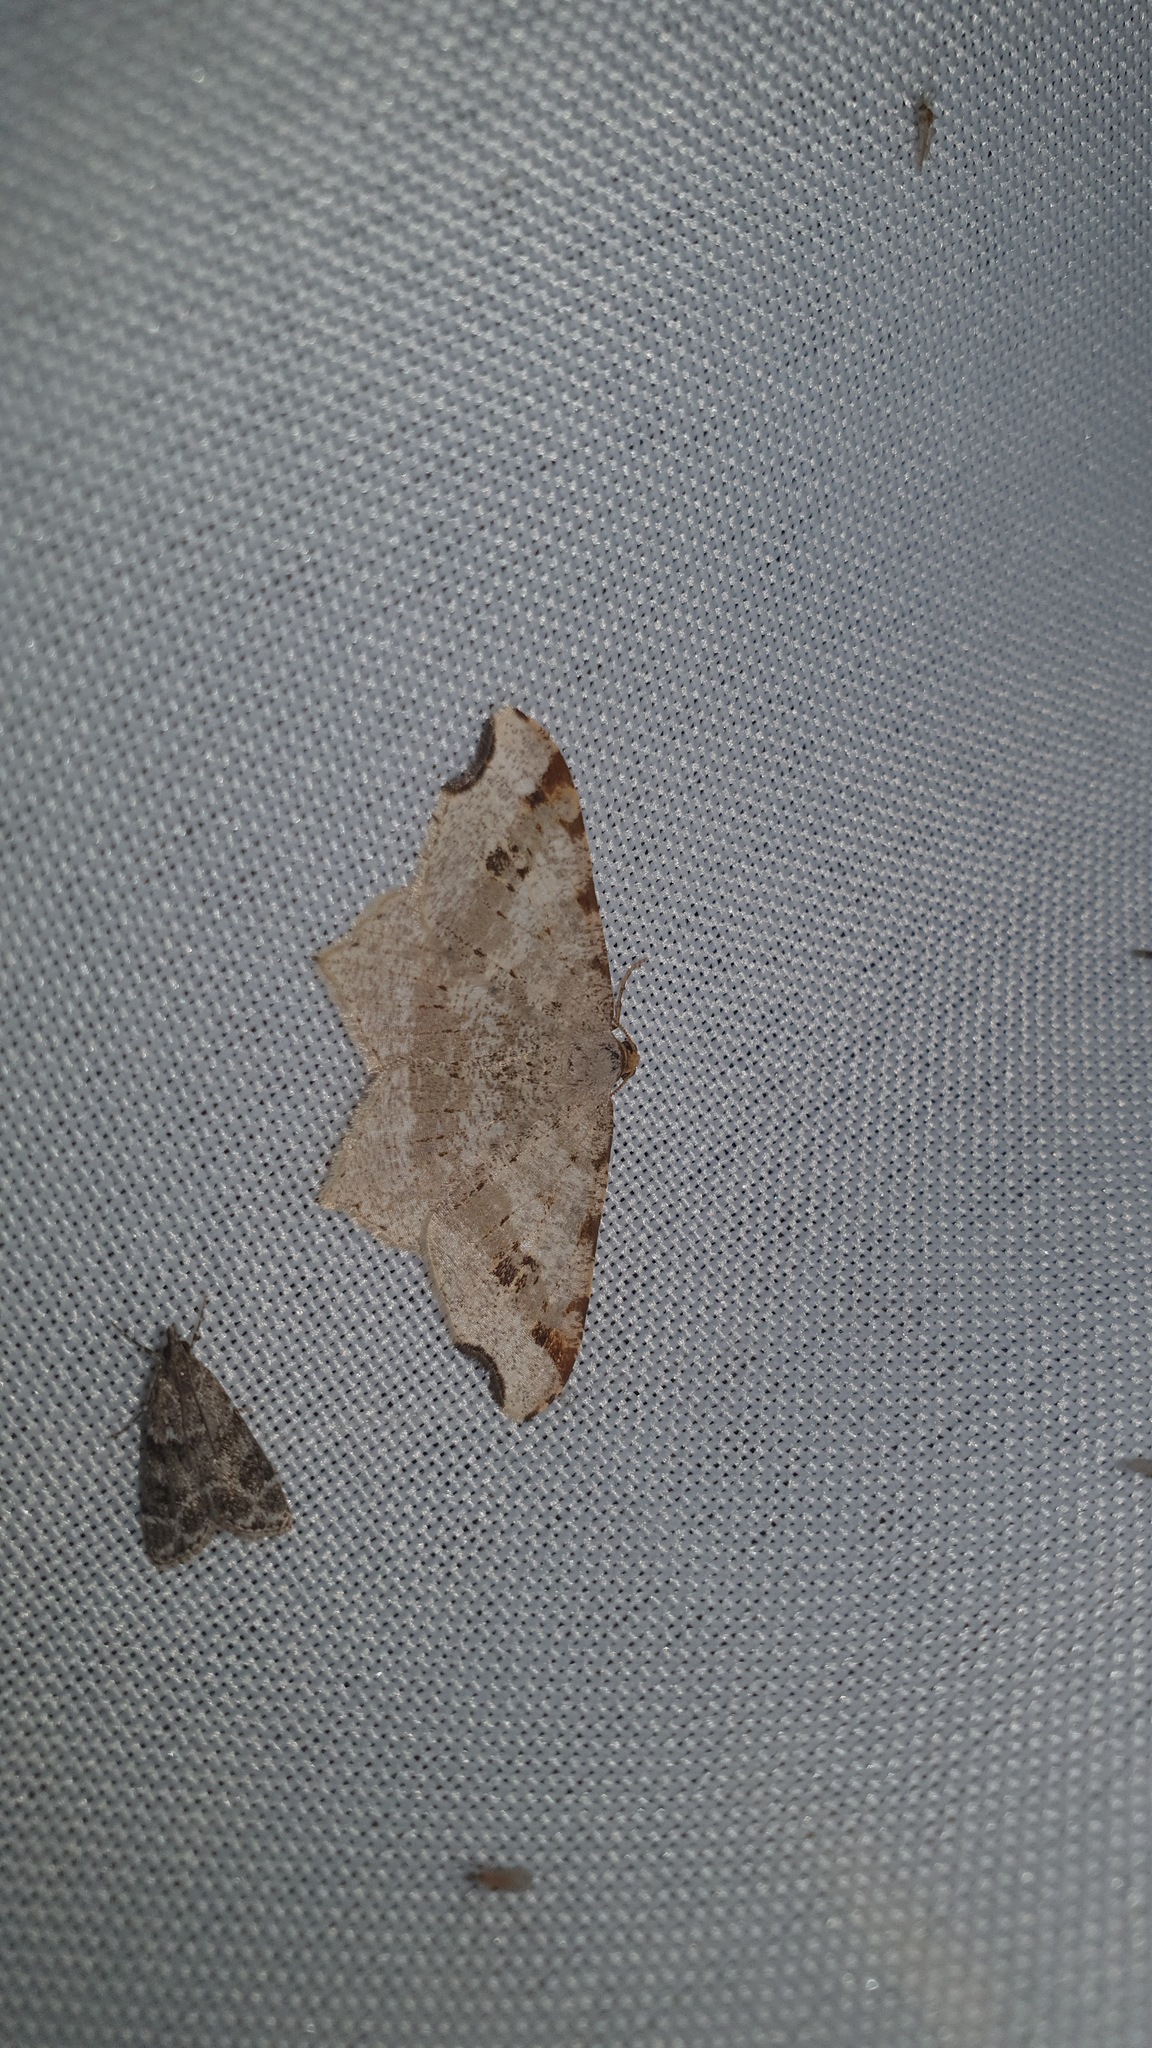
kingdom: Animalia
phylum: Arthropoda
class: Insecta
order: Lepidoptera
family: Geometridae
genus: Macaria
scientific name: Macaria alternata
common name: Sharp-angled peacock
